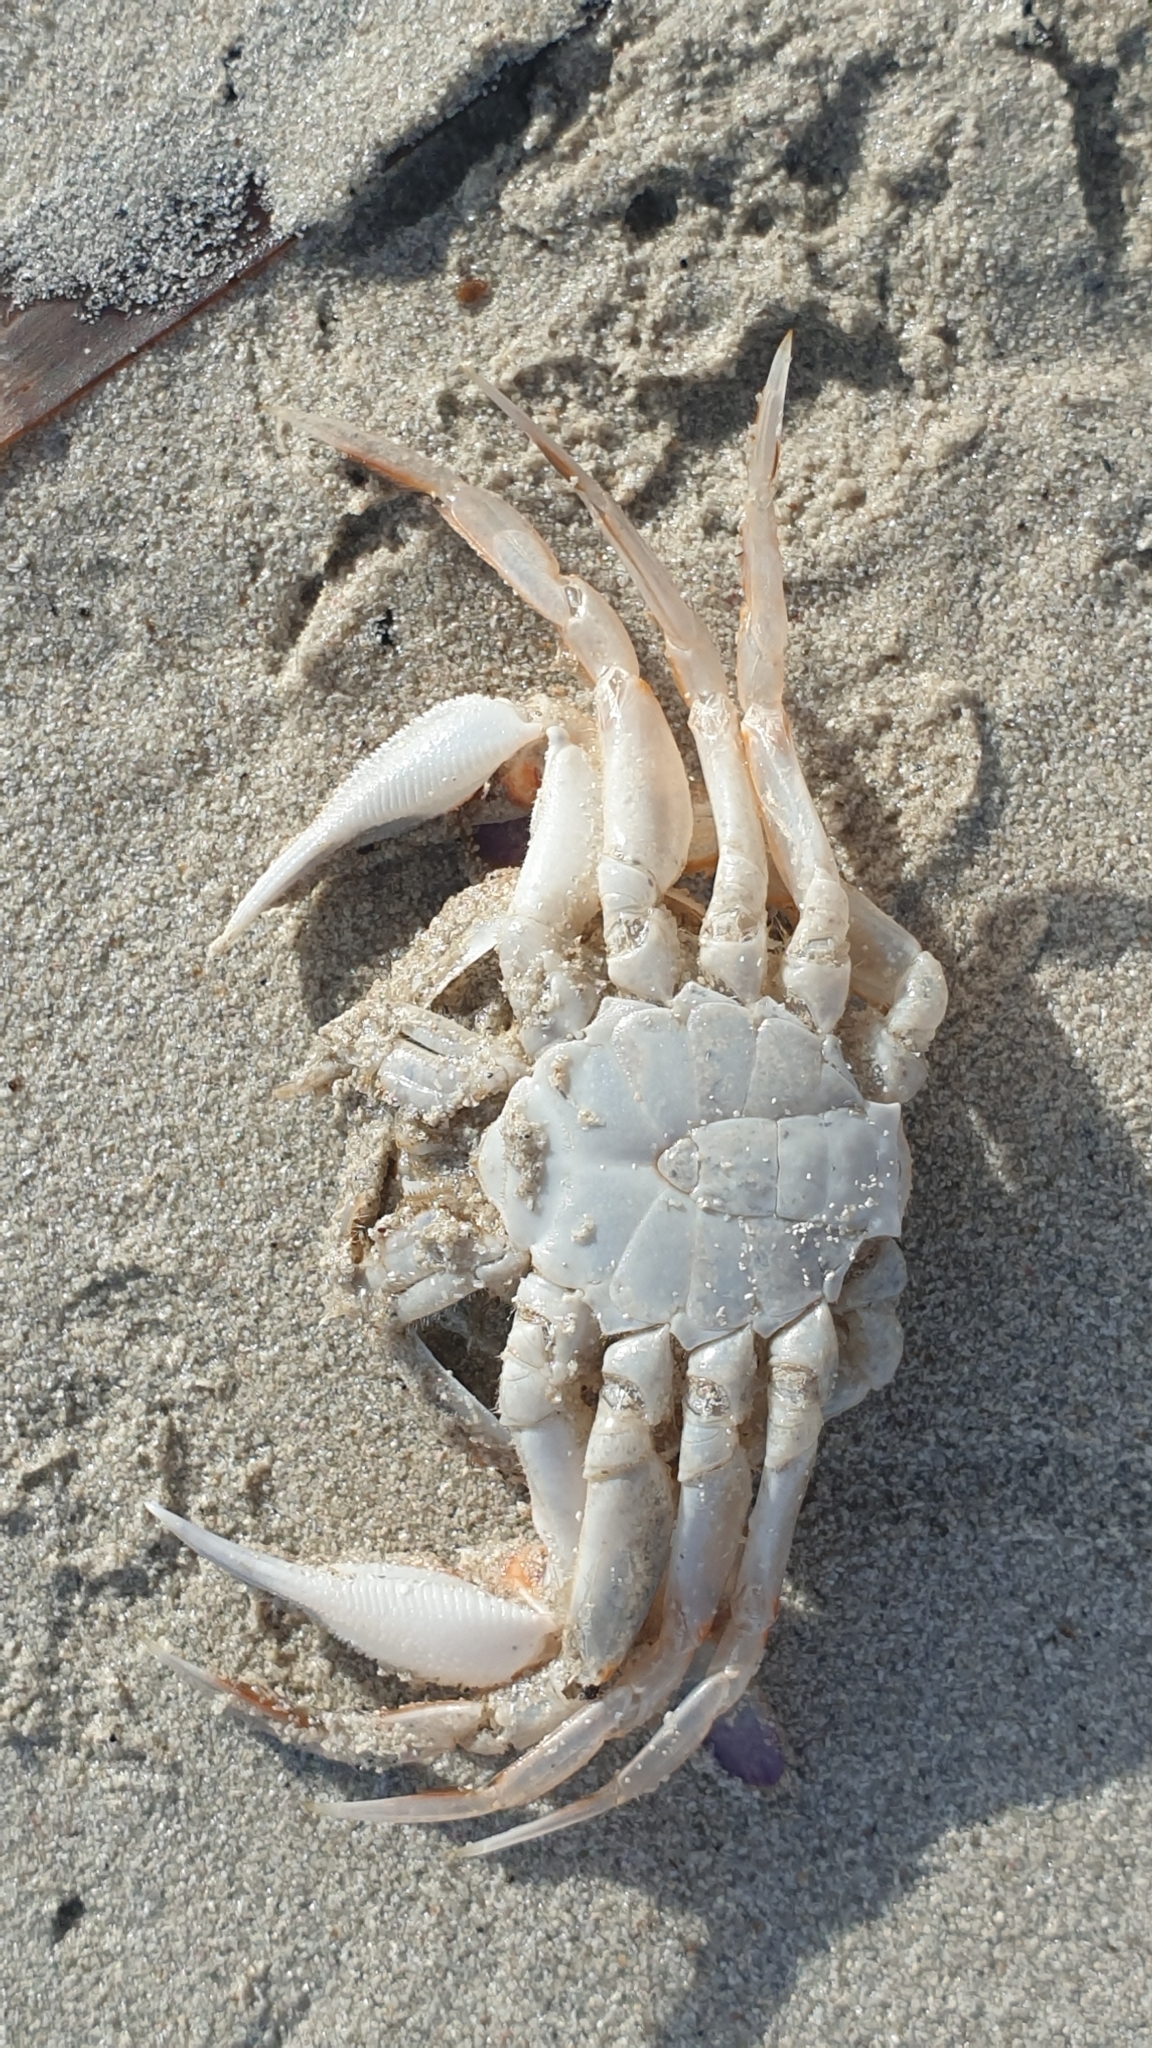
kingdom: Animalia
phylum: Arthropoda
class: Malacostraca
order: Decapoda
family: Ovalipidae
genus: Ovalipes
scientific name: Ovalipes australiensis
